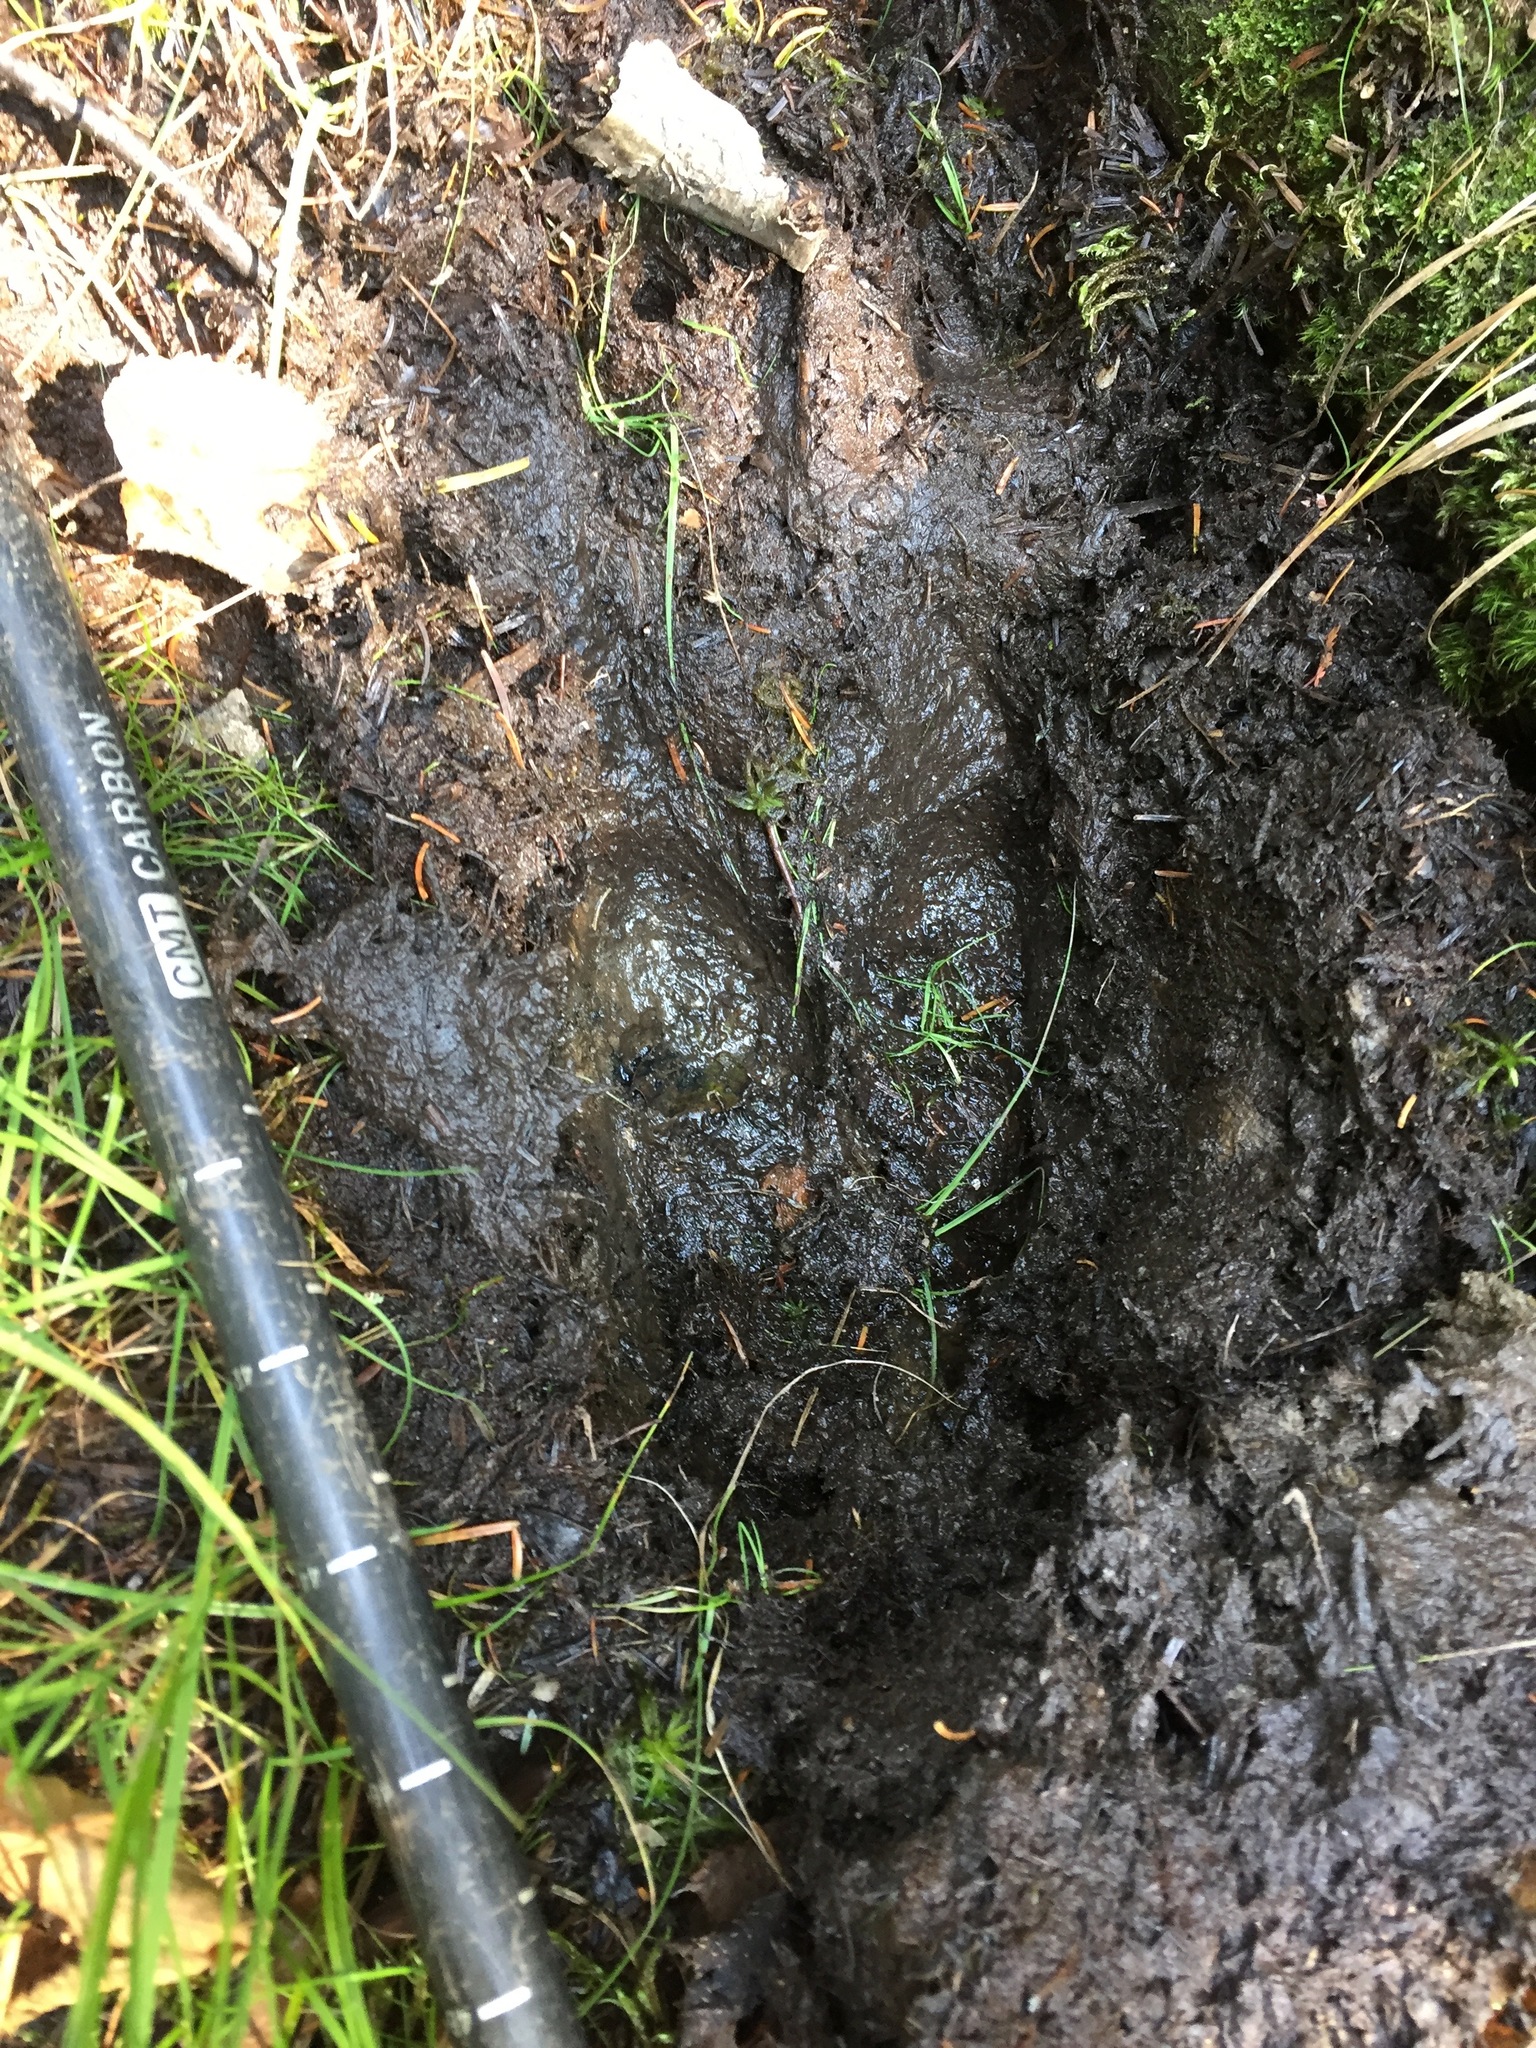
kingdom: Animalia
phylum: Chordata
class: Mammalia
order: Artiodactyla
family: Cervidae
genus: Alces
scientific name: Alces alces
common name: Moose
